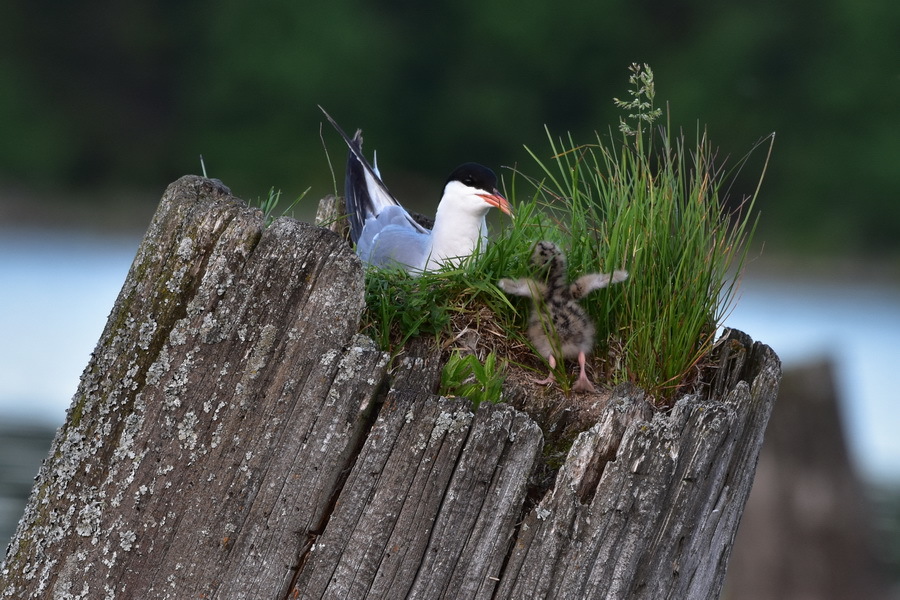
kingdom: Animalia
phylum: Chordata
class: Aves
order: Charadriiformes
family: Laridae
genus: Sterna
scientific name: Sterna hirundo
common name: Common tern
